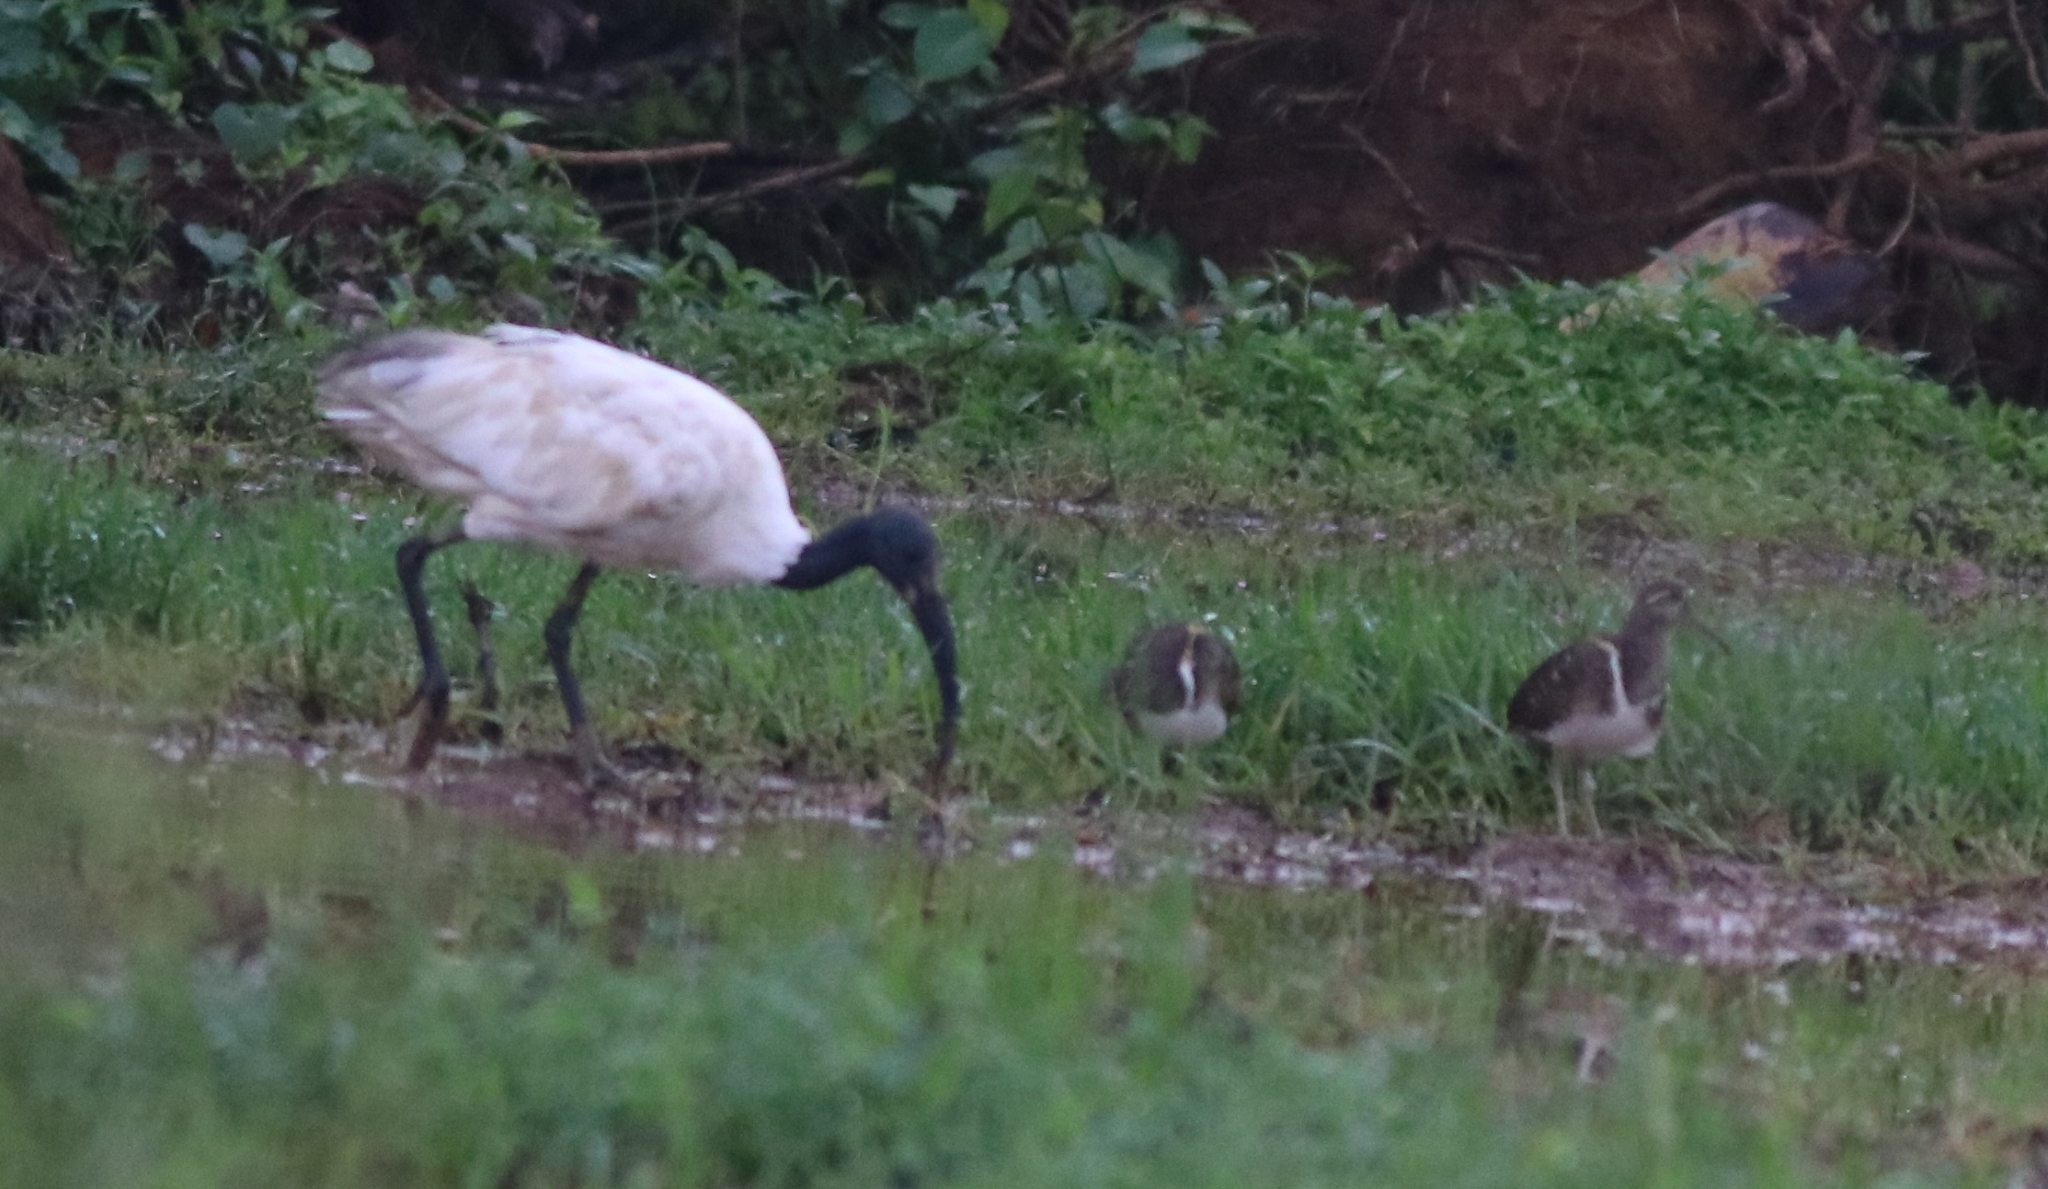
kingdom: Animalia
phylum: Chordata
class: Aves
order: Pelecaniformes
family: Threskiornithidae
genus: Threskiornis
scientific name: Threskiornis melanocephalus
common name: Black-headed ibis
